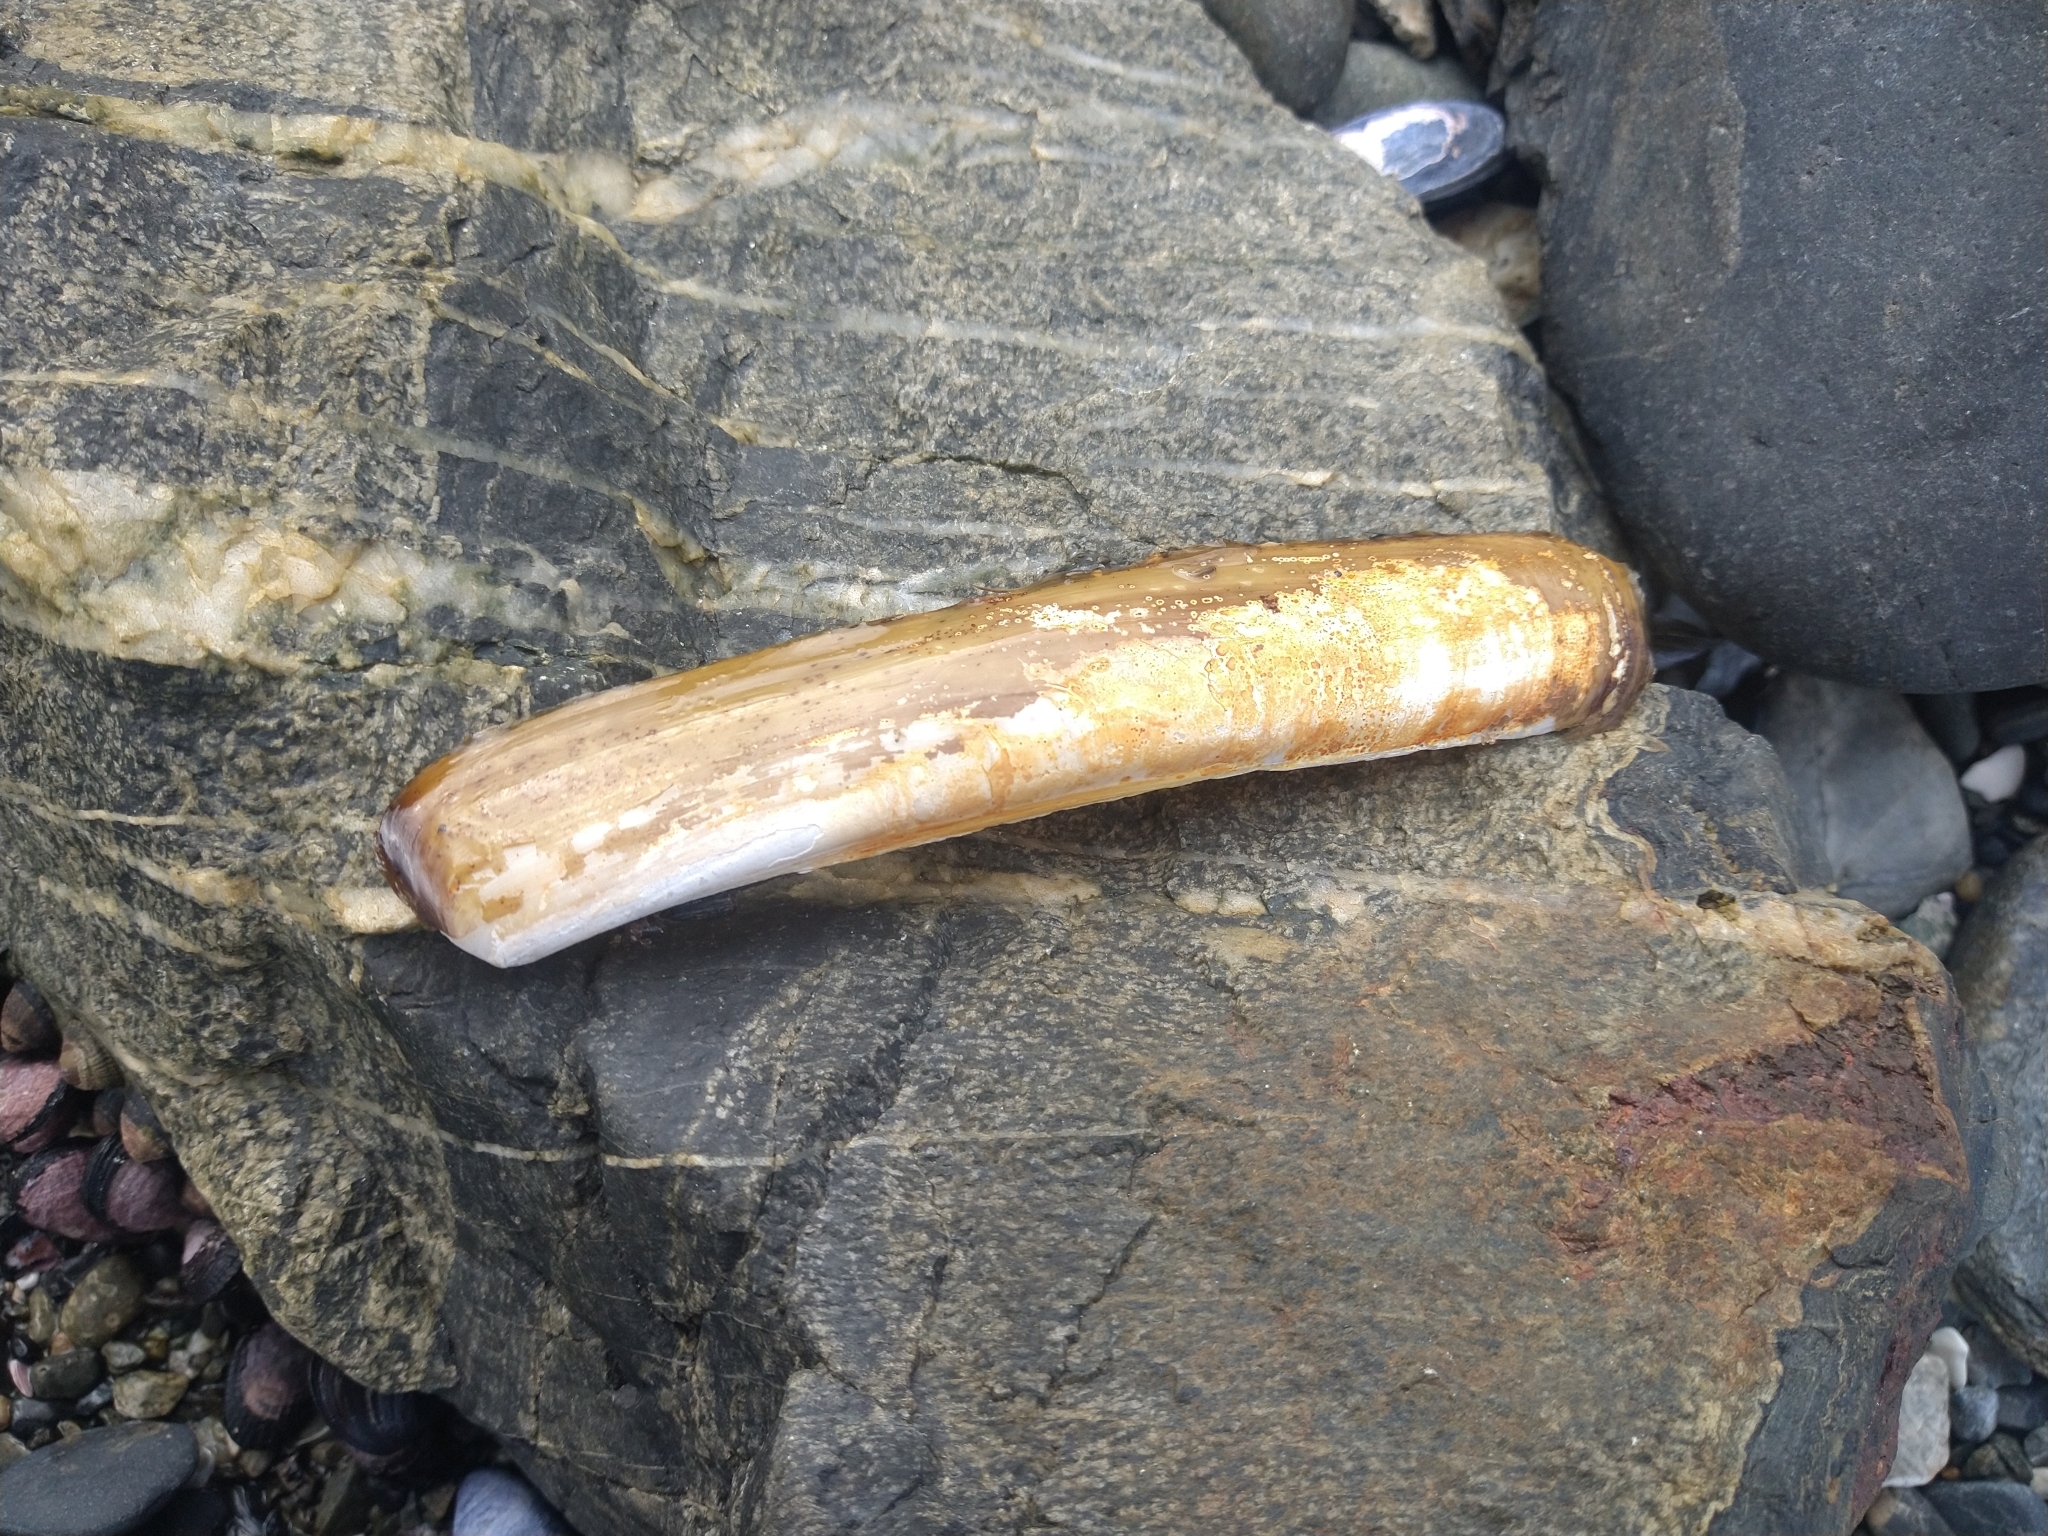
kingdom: Animalia
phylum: Mollusca
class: Bivalvia
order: Adapedonta
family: Pharidae
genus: Ensis
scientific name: Ensis macha
